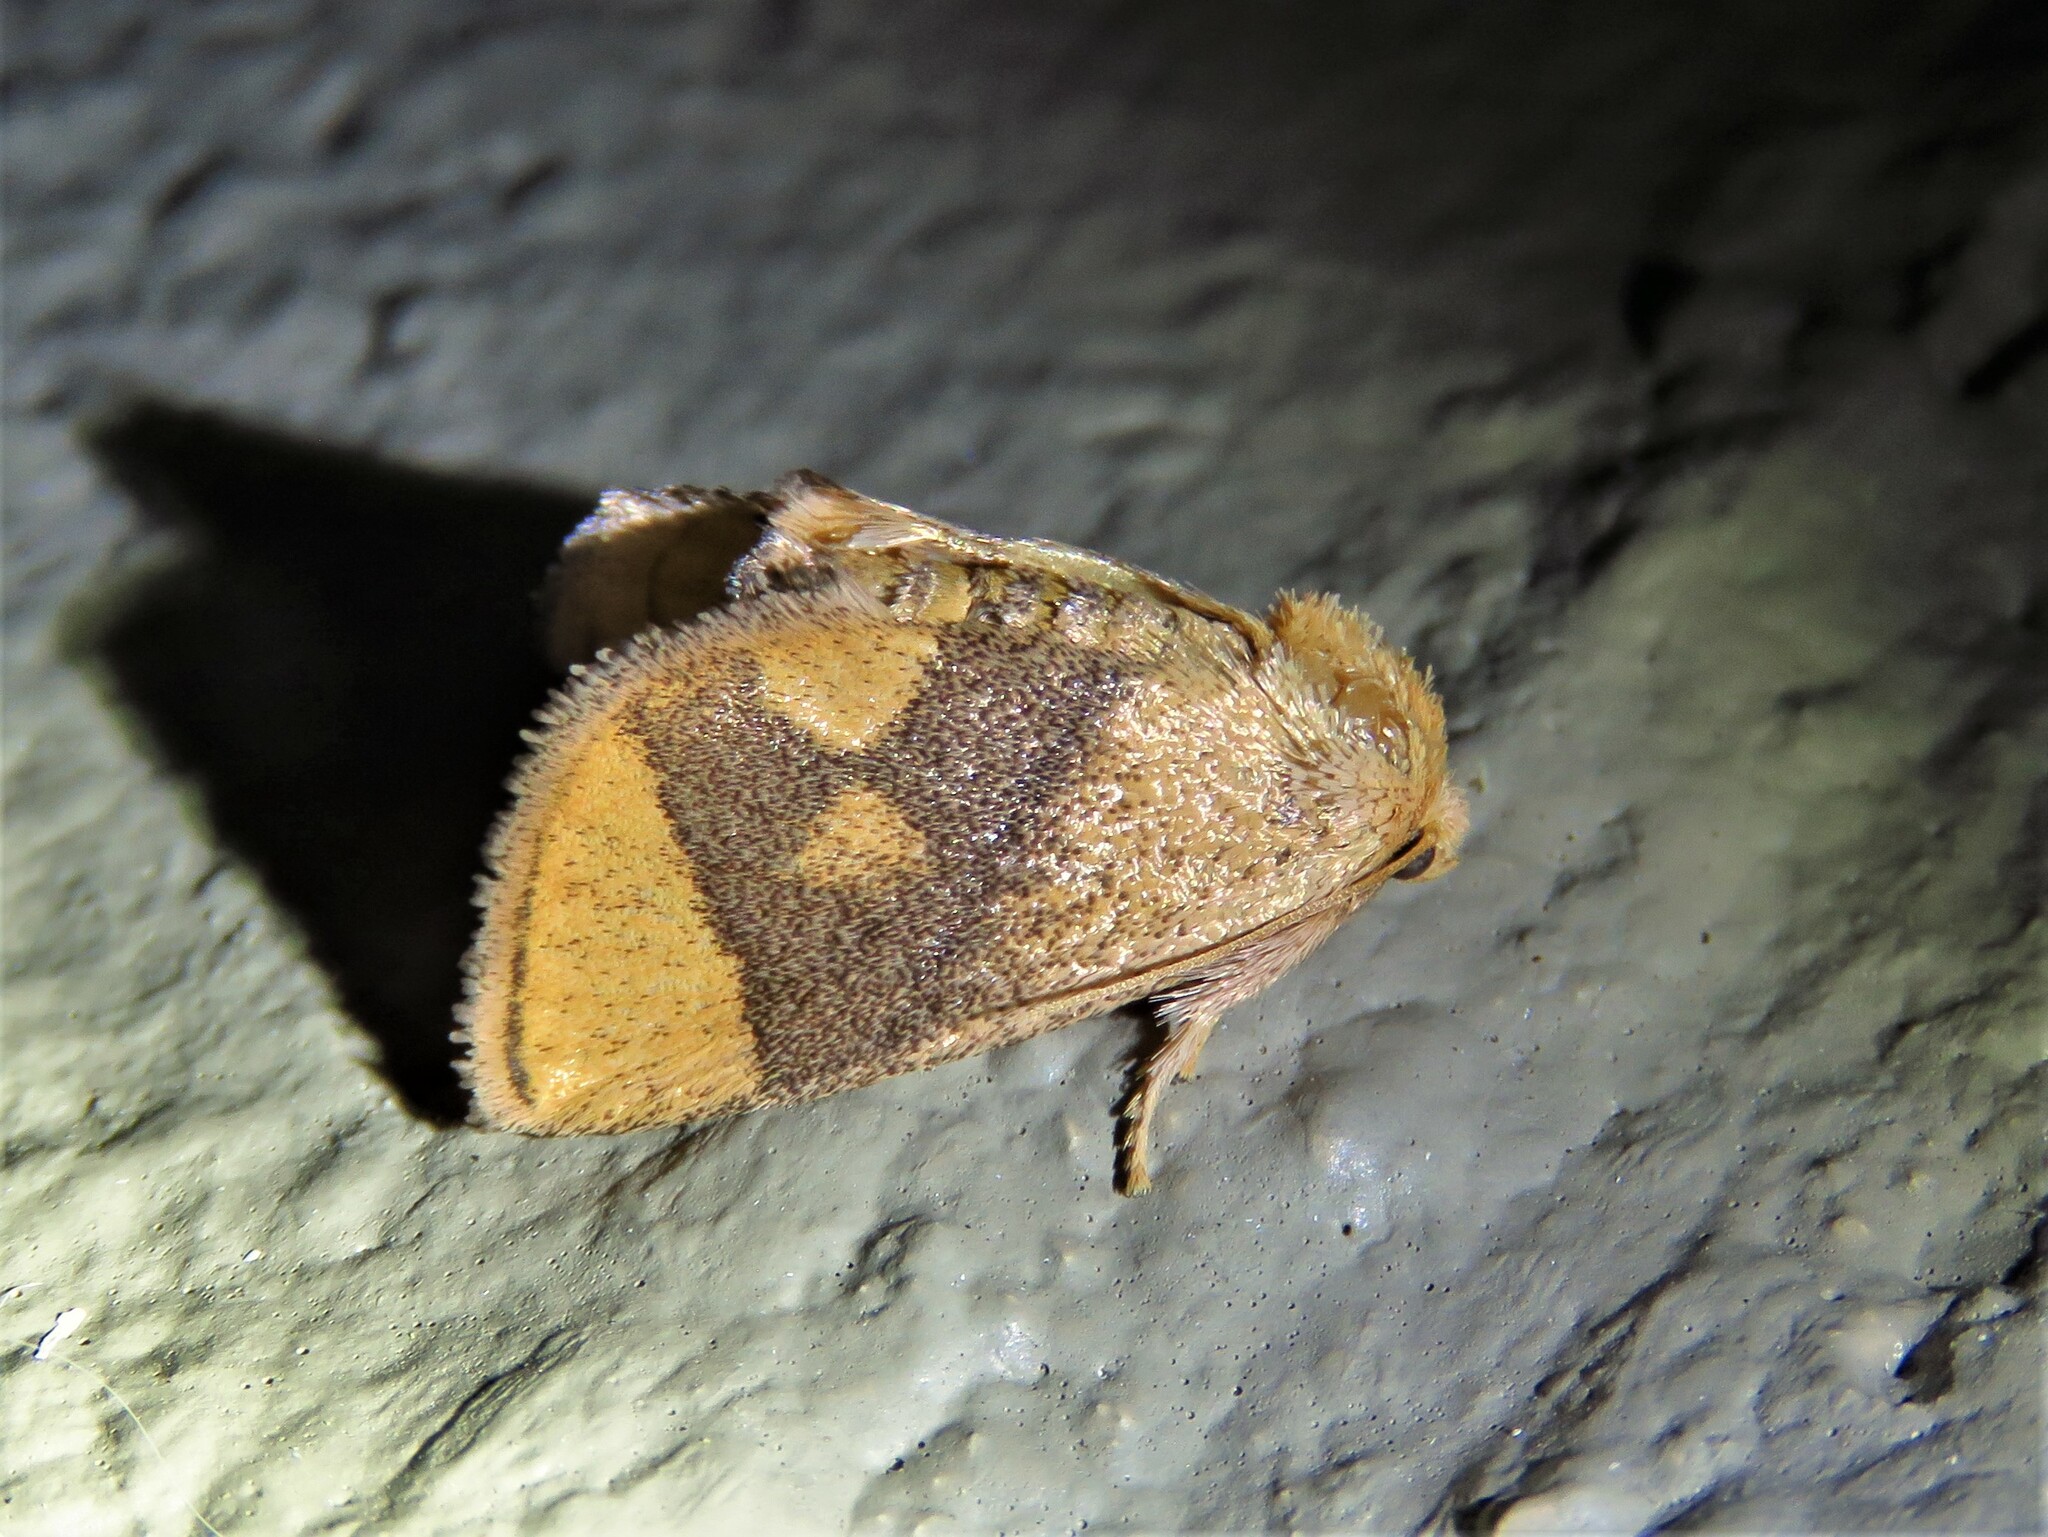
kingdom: Animalia
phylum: Arthropoda
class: Insecta
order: Lepidoptera
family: Limacodidae
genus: Apoda
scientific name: Apoda y-inversa
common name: Yellow-collared slug moth
